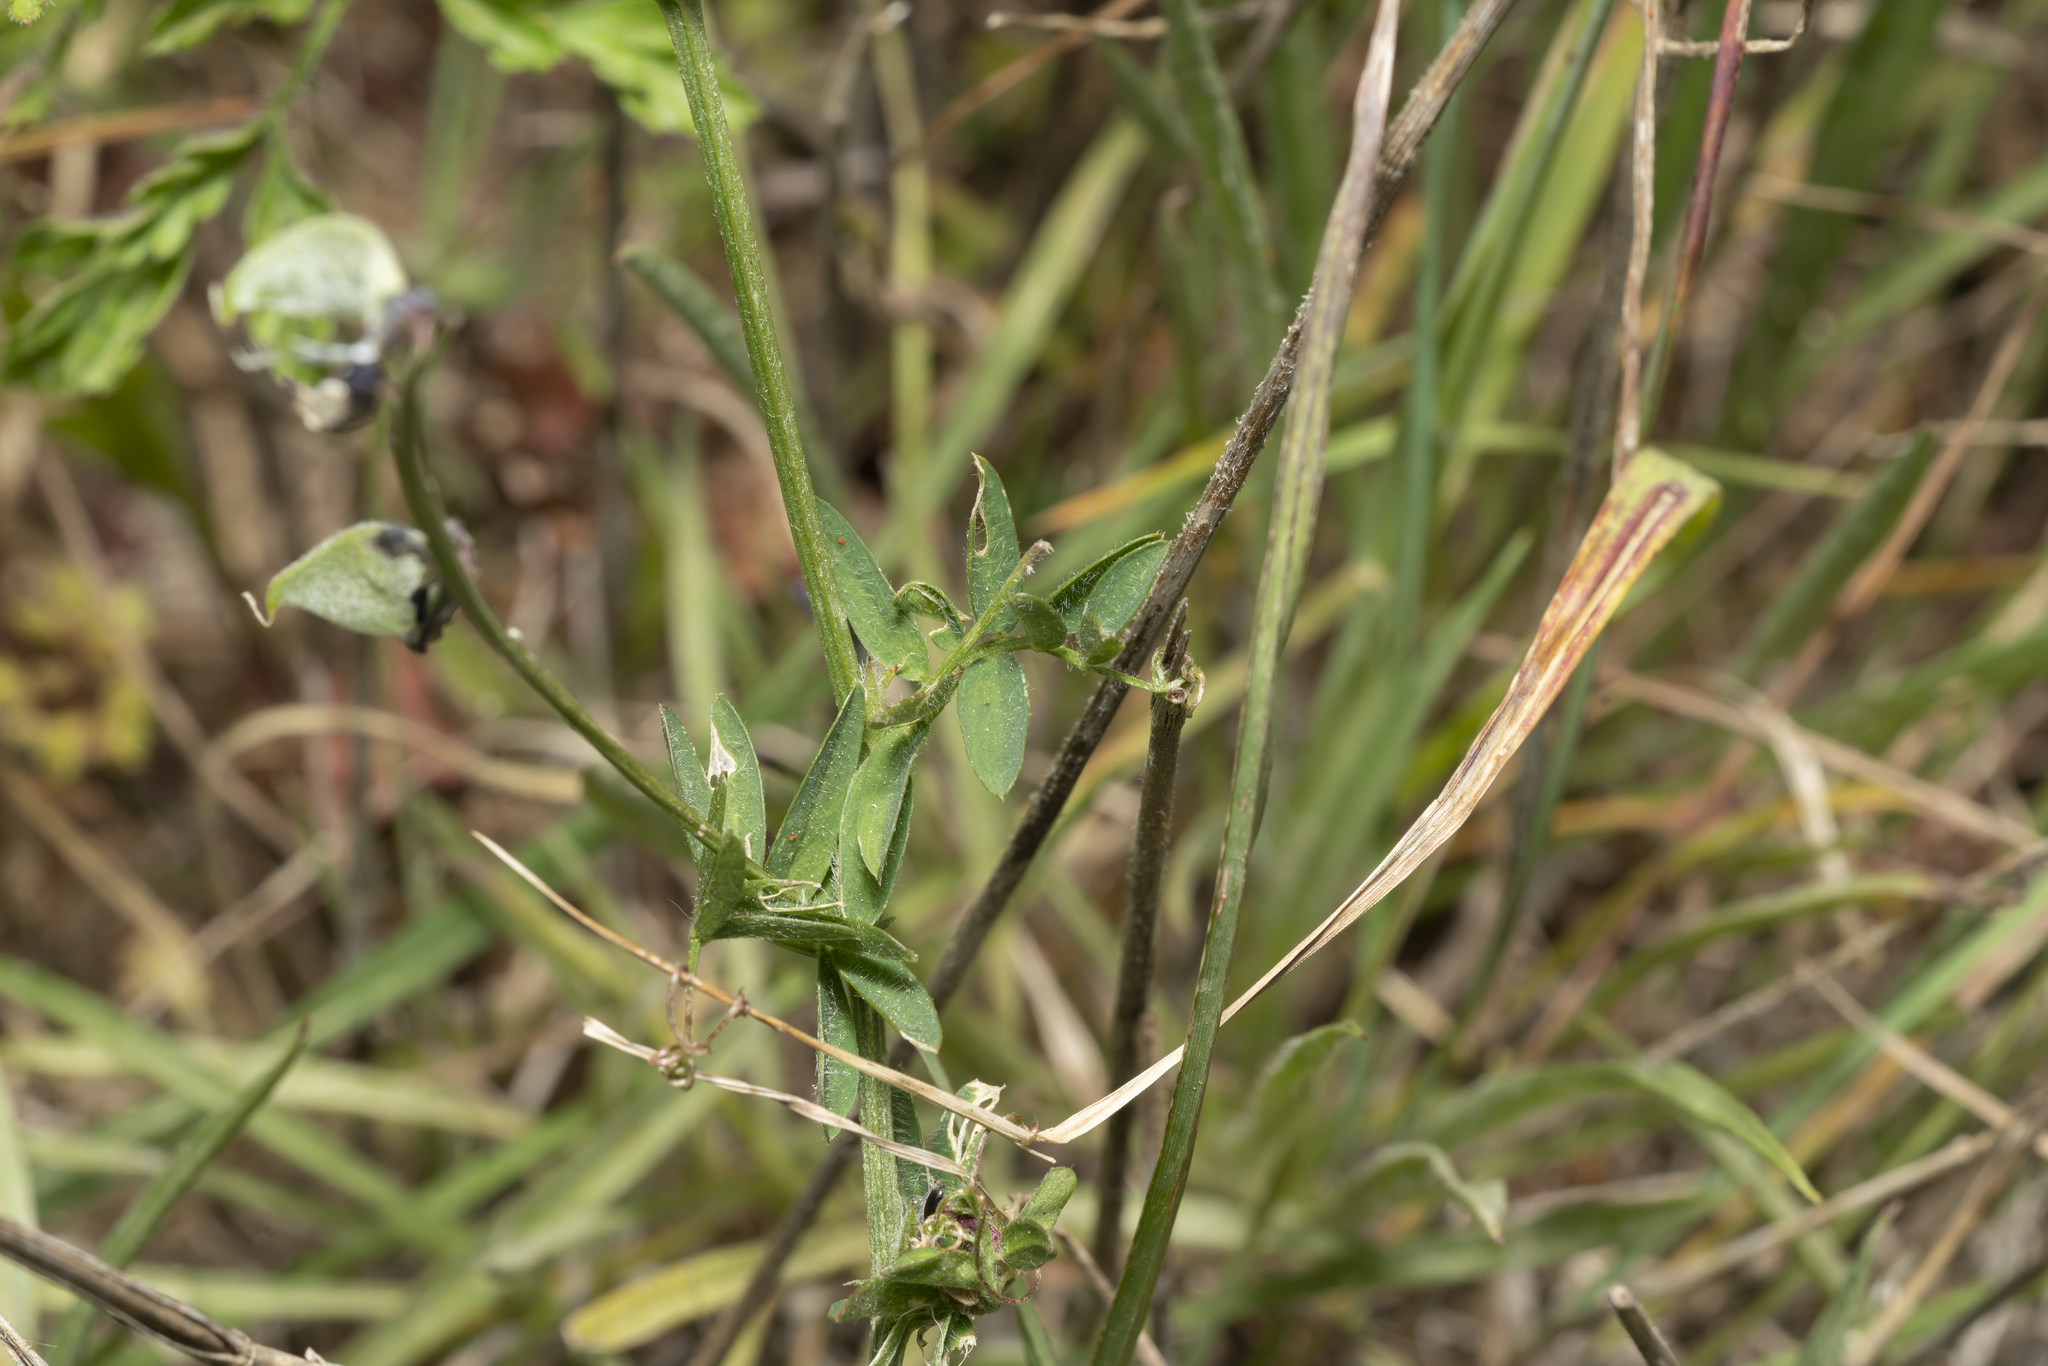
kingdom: Plantae
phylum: Tracheophyta
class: Magnoliopsida
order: Fabales
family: Fabaceae
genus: Vicia
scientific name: Vicia eriocarpa
